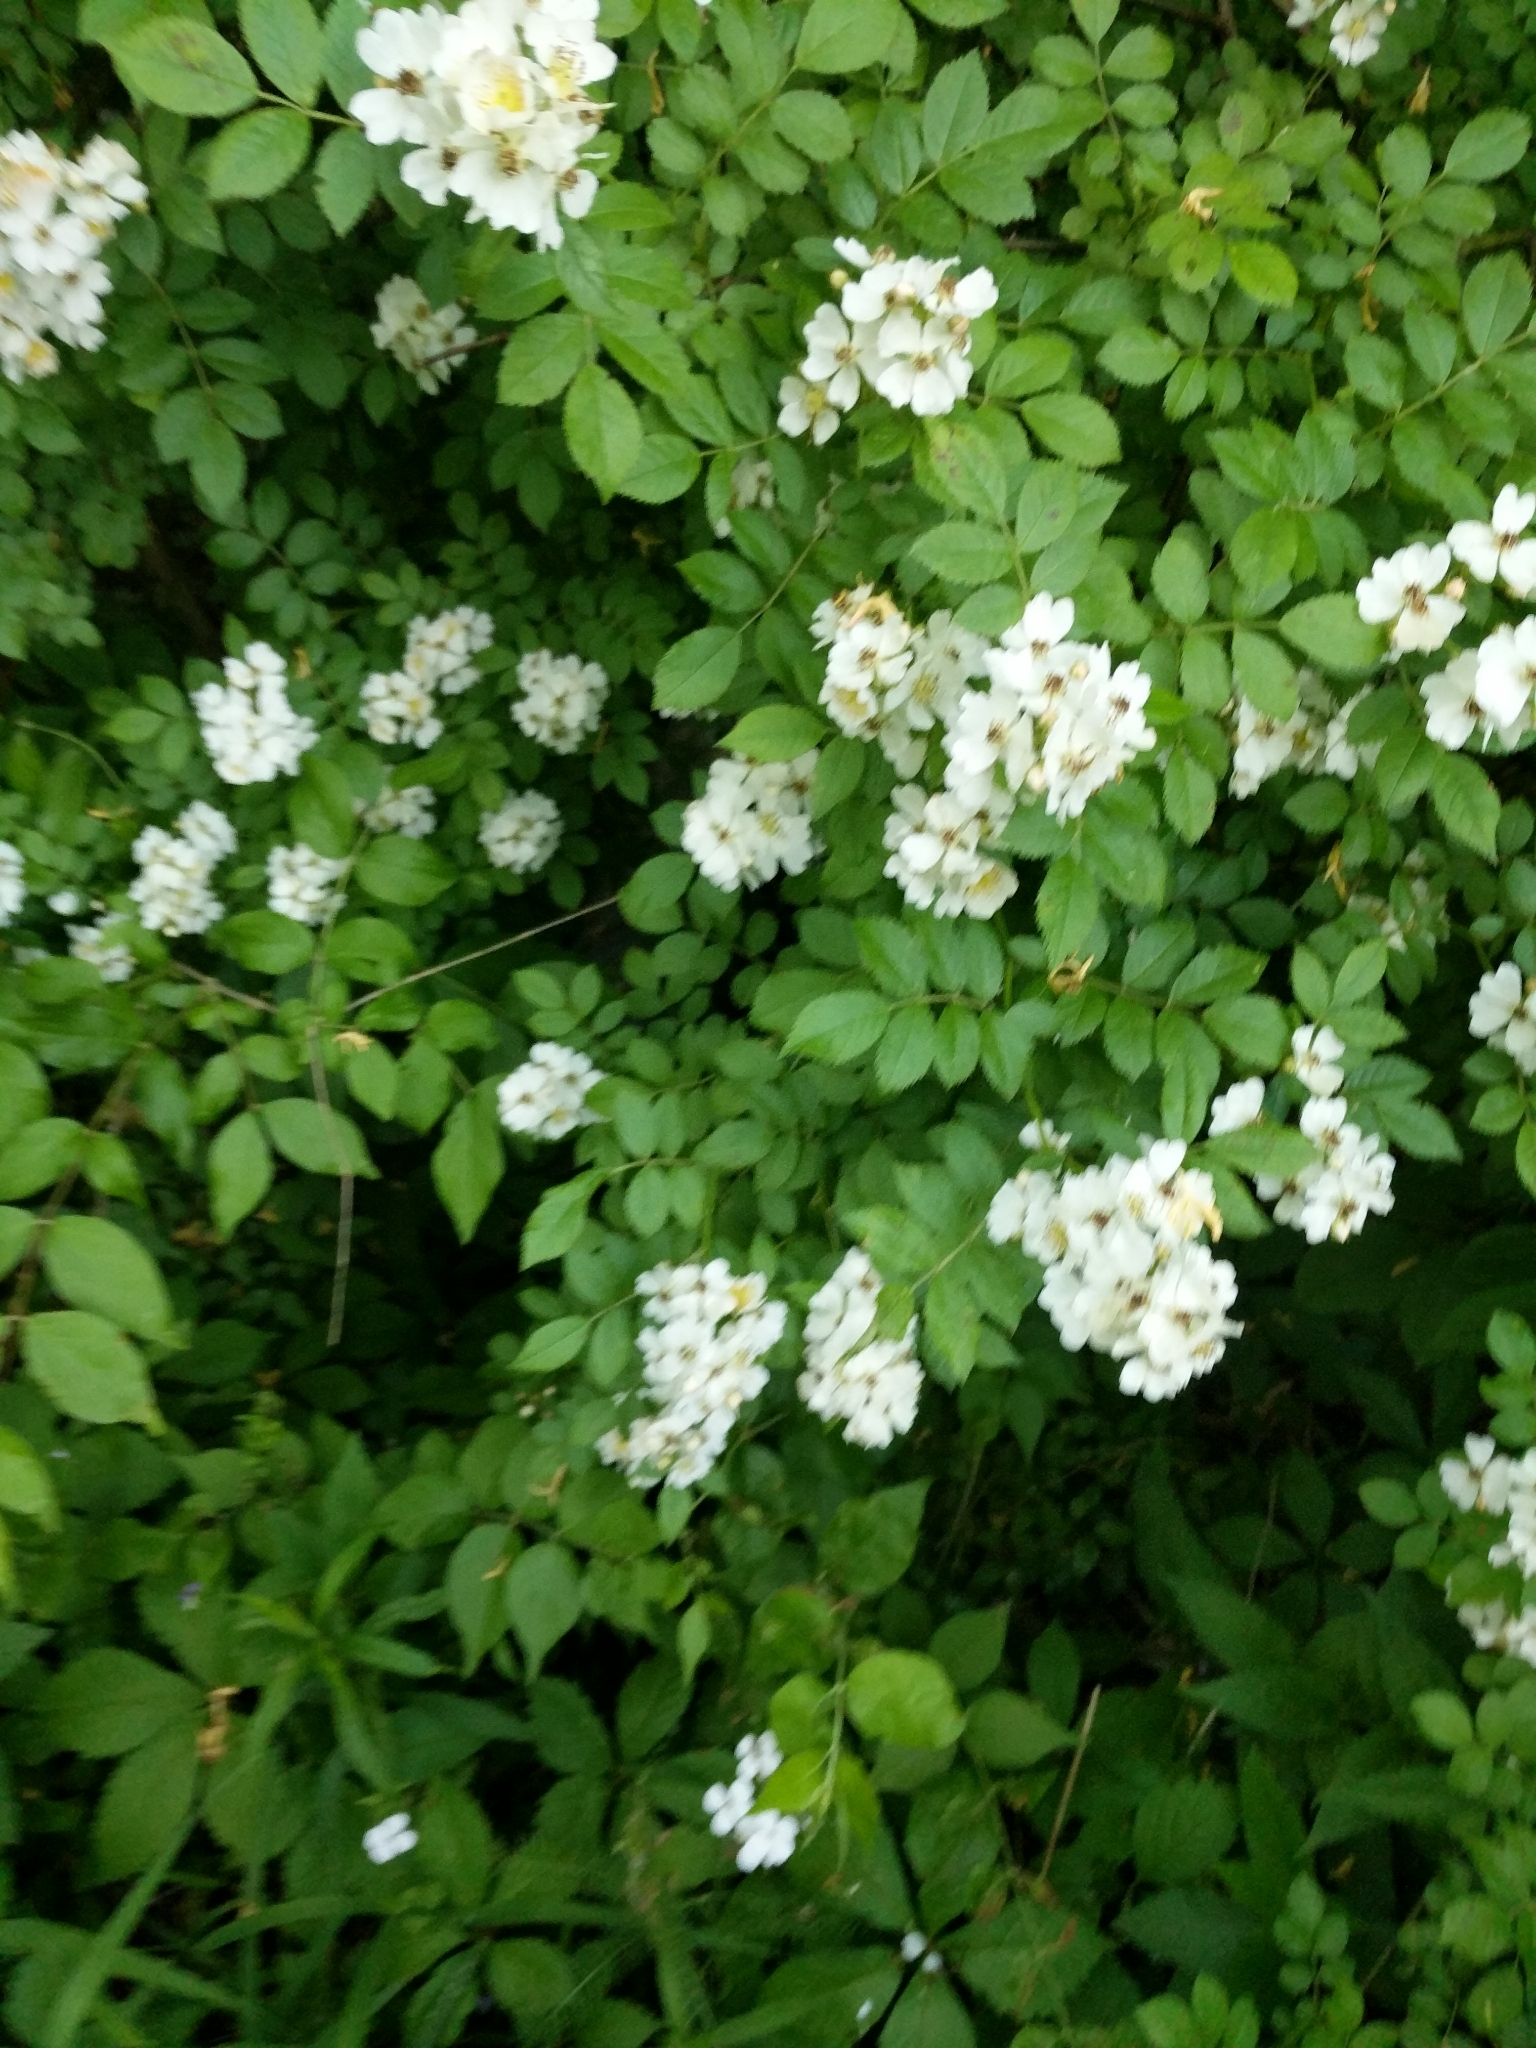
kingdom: Plantae
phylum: Tracheophyta
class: Magnoliopsida
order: Rosales
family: Rosaceae
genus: Rosa
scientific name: Rosa multiflora
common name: Multiflora rose
